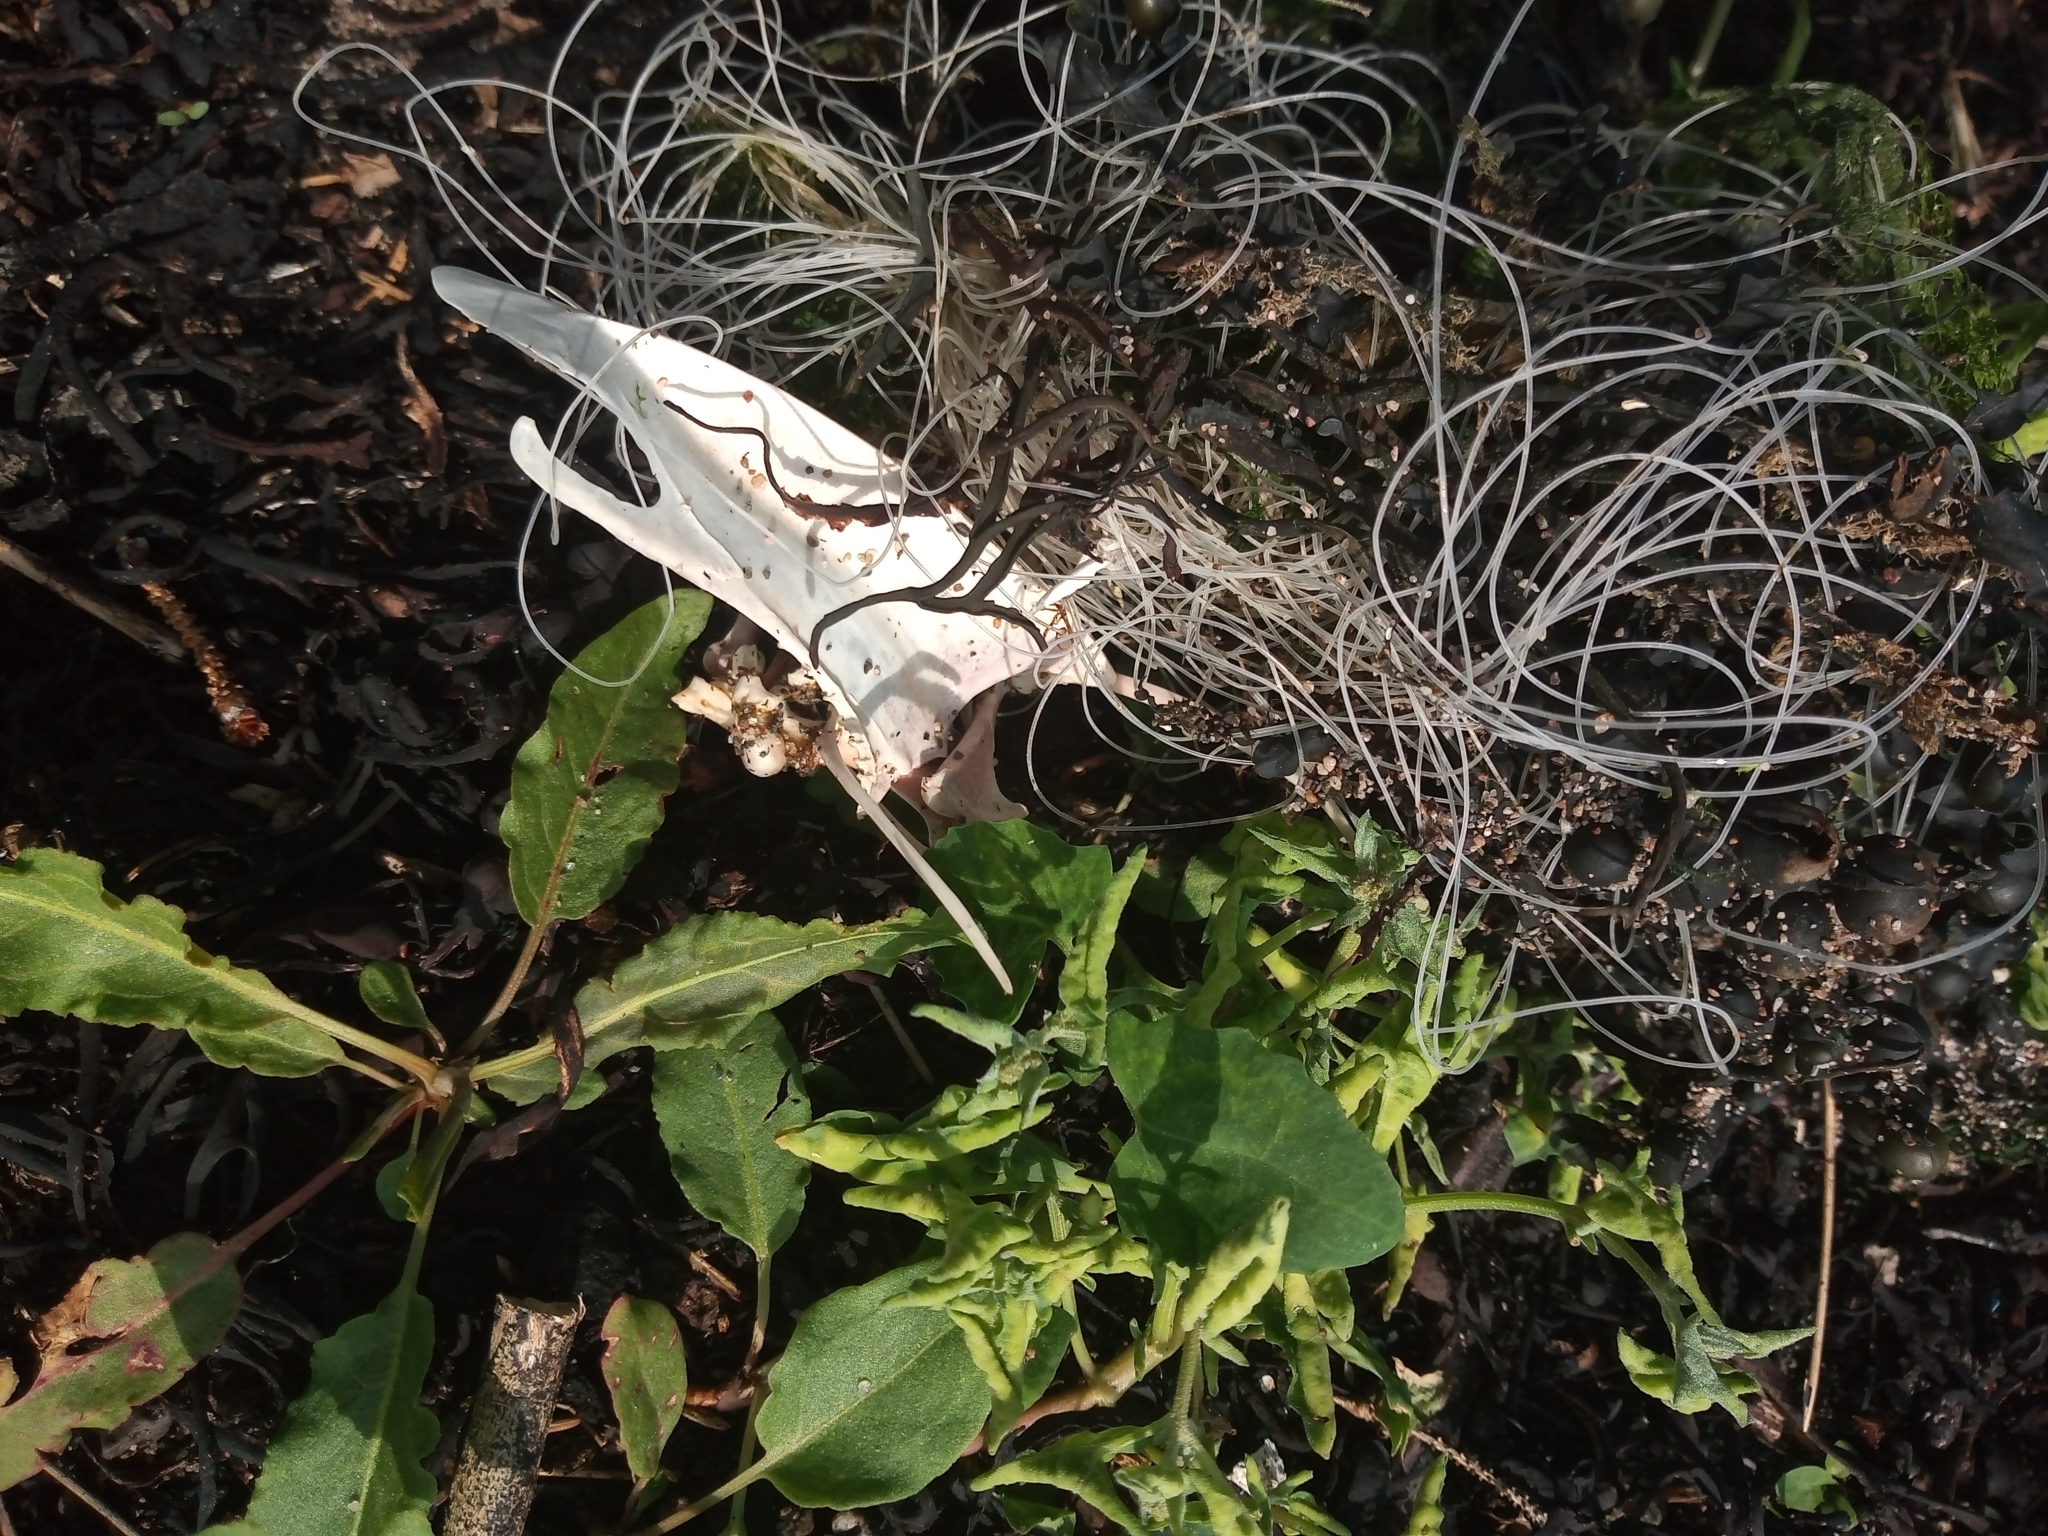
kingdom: Animalia
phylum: Chordata
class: Aves
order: Anseriformes
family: Anatidae
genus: Clangula
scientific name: Clangula hyemalis
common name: Long-tailed duck
